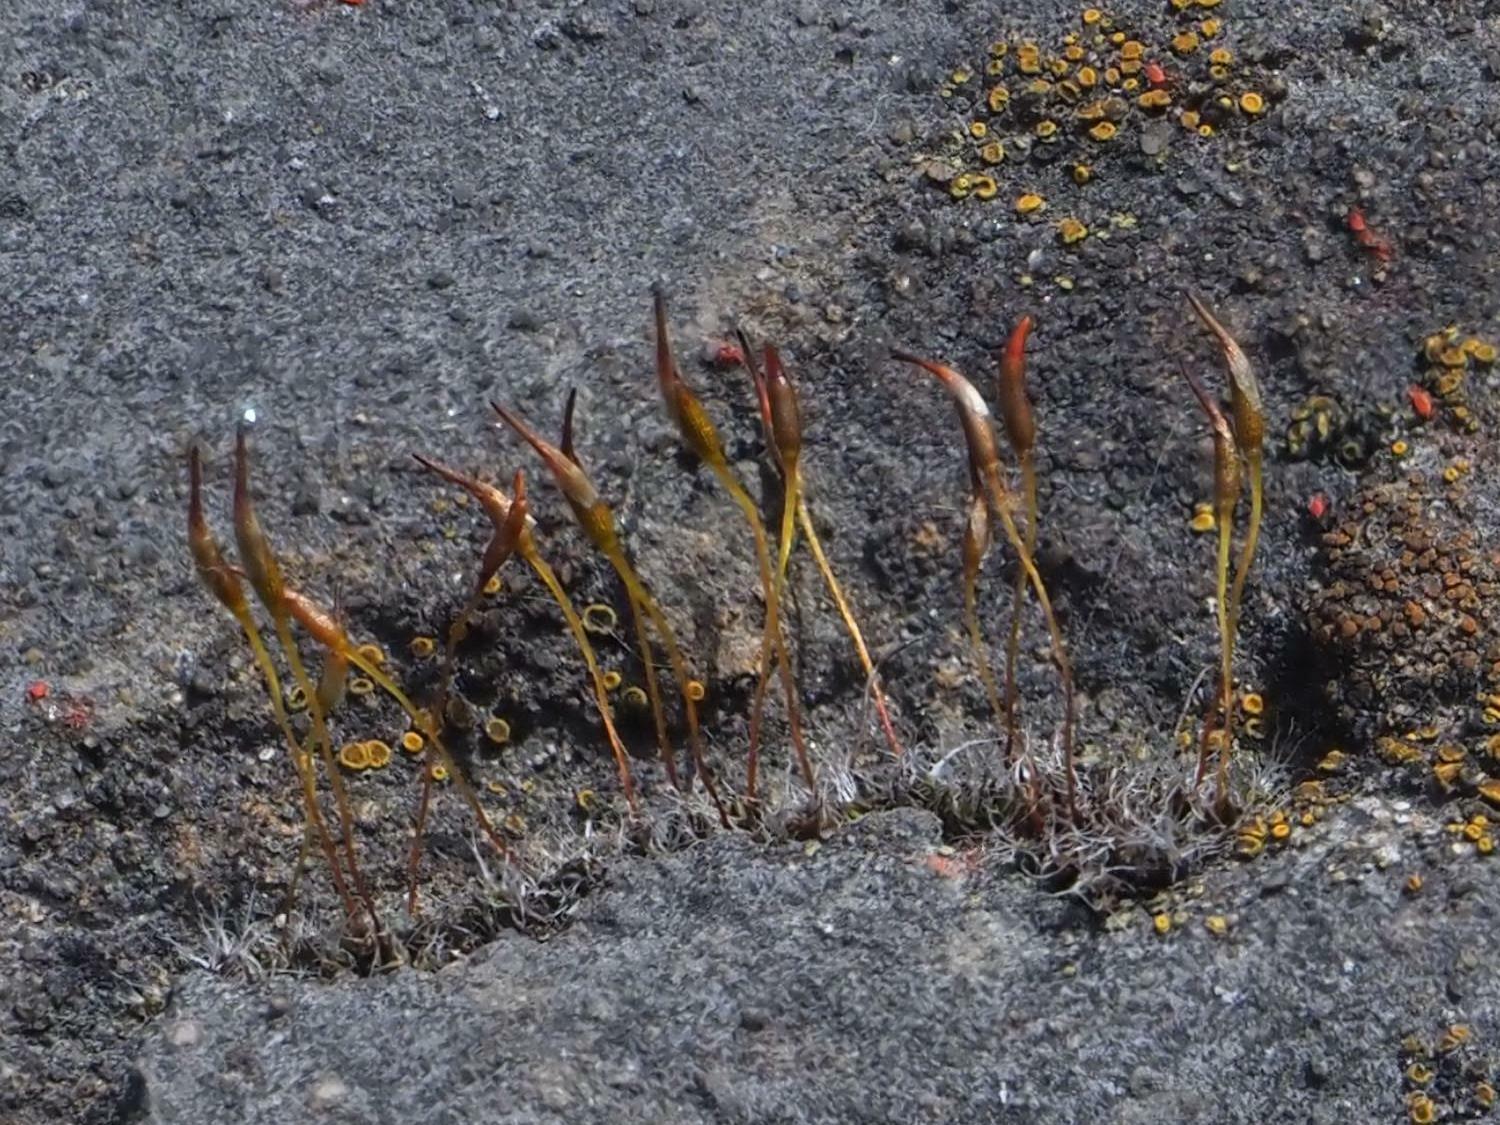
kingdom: Plantae
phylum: Bryophyta
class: Bryopsida
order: Pottiales
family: Pottiaceae
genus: Tortula
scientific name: Tortula muralis
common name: Wall screw-moss
